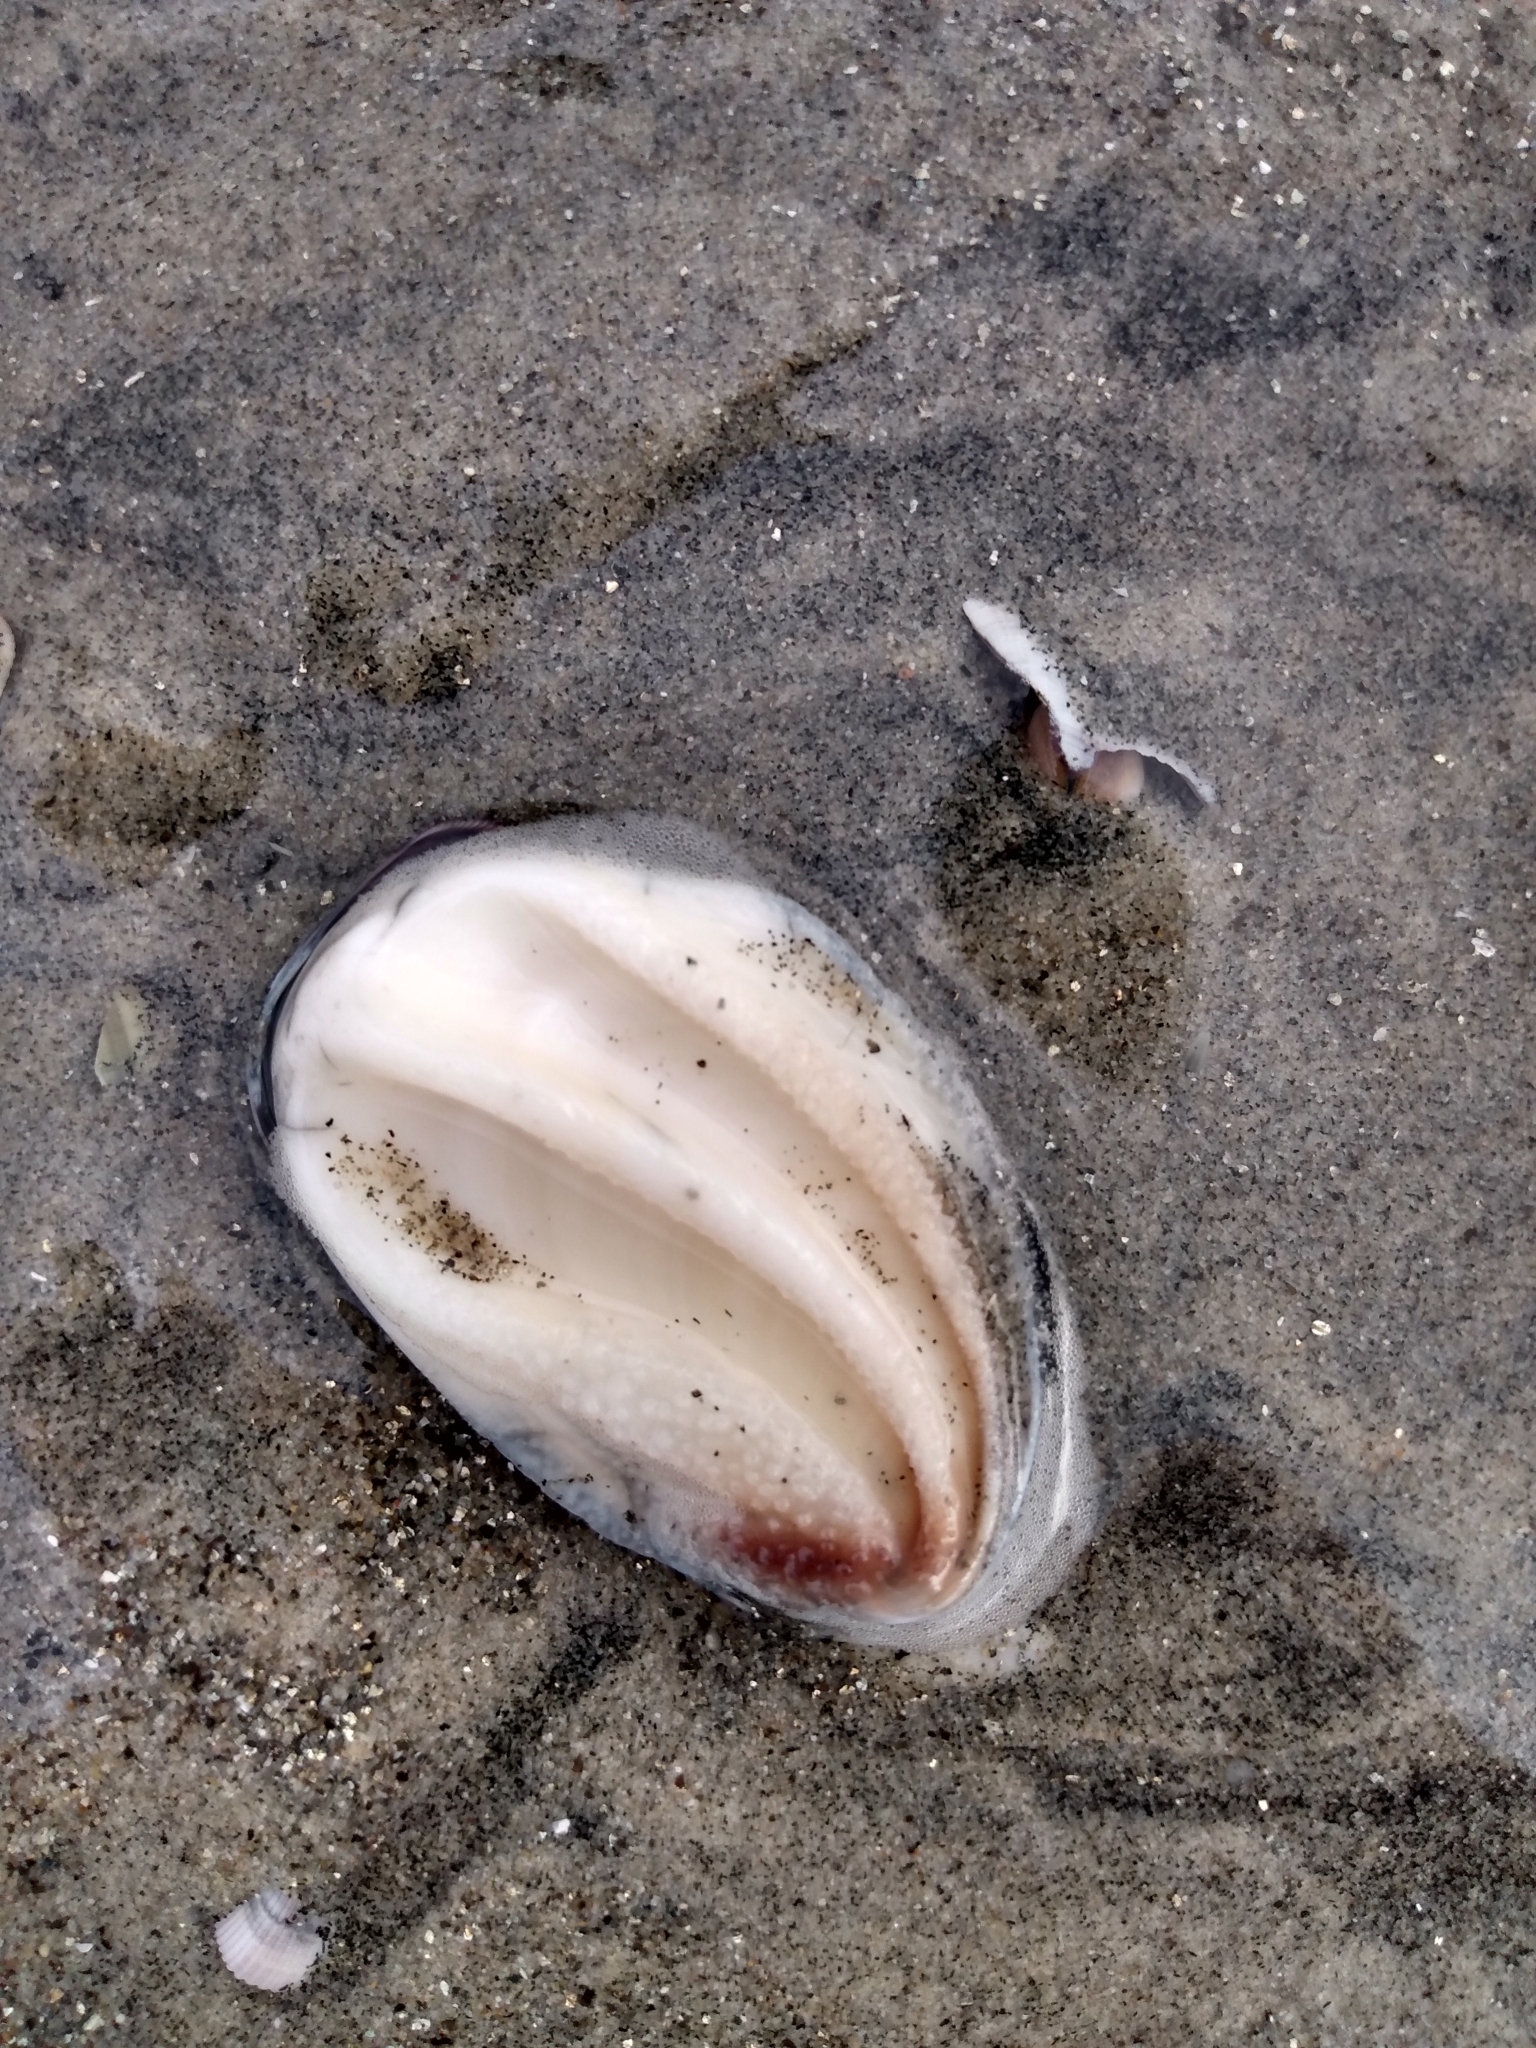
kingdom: Animalia
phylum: Mollusca
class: Gastropoda
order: Trochida
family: Turbinidae
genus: Megastraea
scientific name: Megastraea undosa
